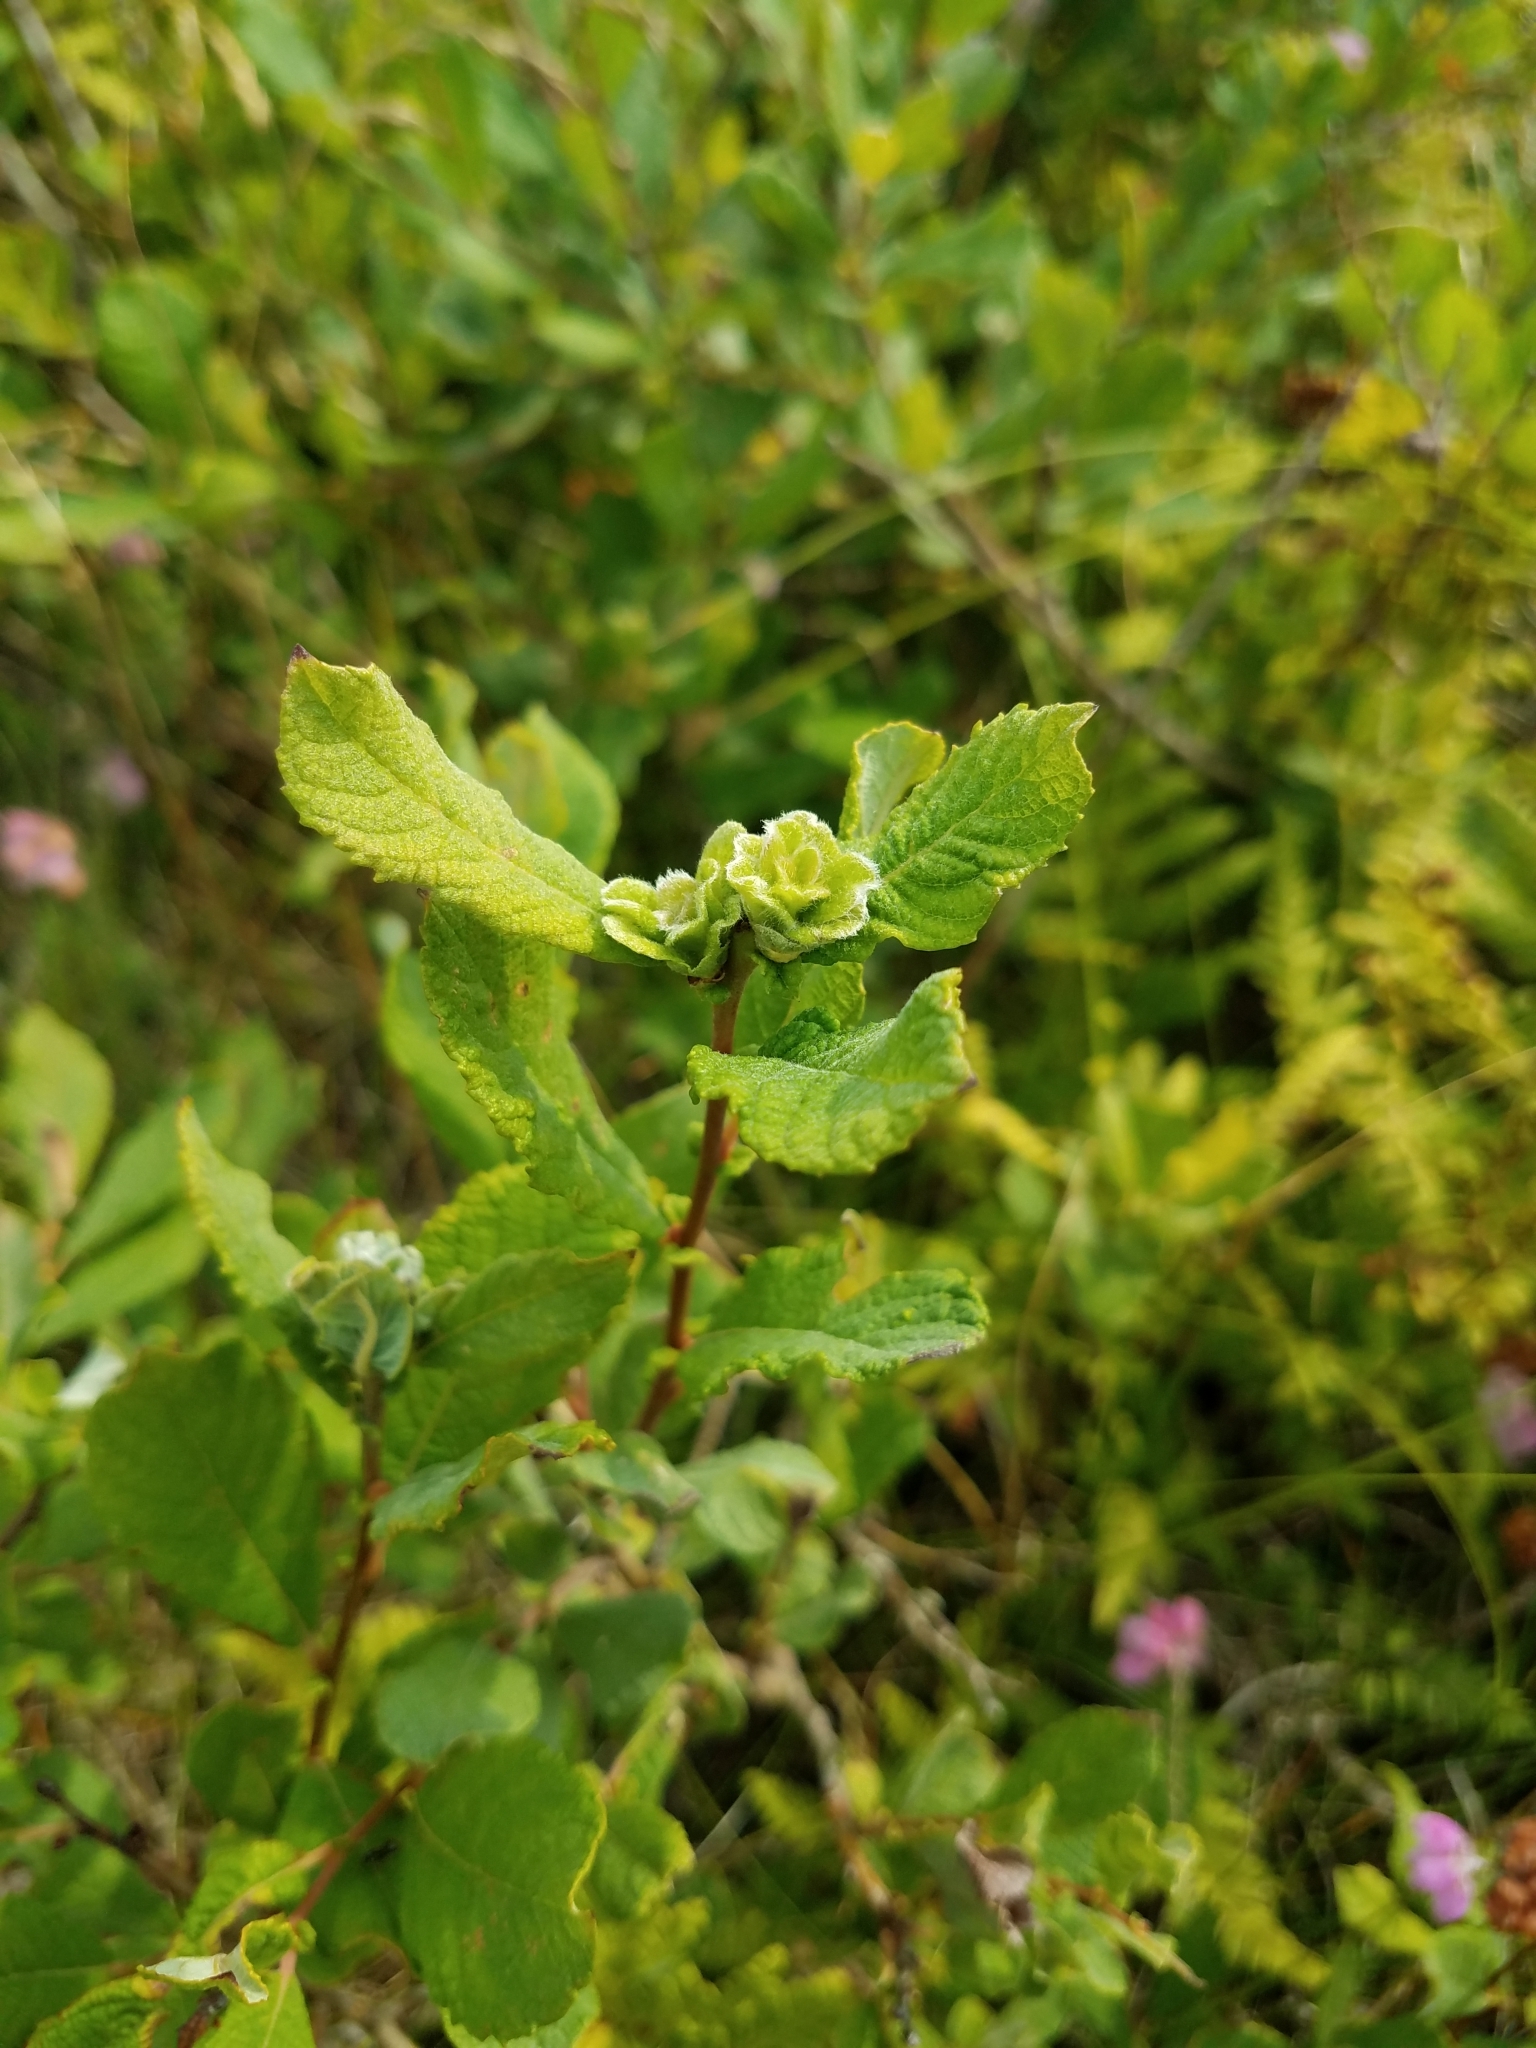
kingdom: Plantae
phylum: Tracheophyta
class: Magnoliopsida
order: Malpighiales
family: Salicaceae
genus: Salix
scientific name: Salix aurita
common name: Eared willow
